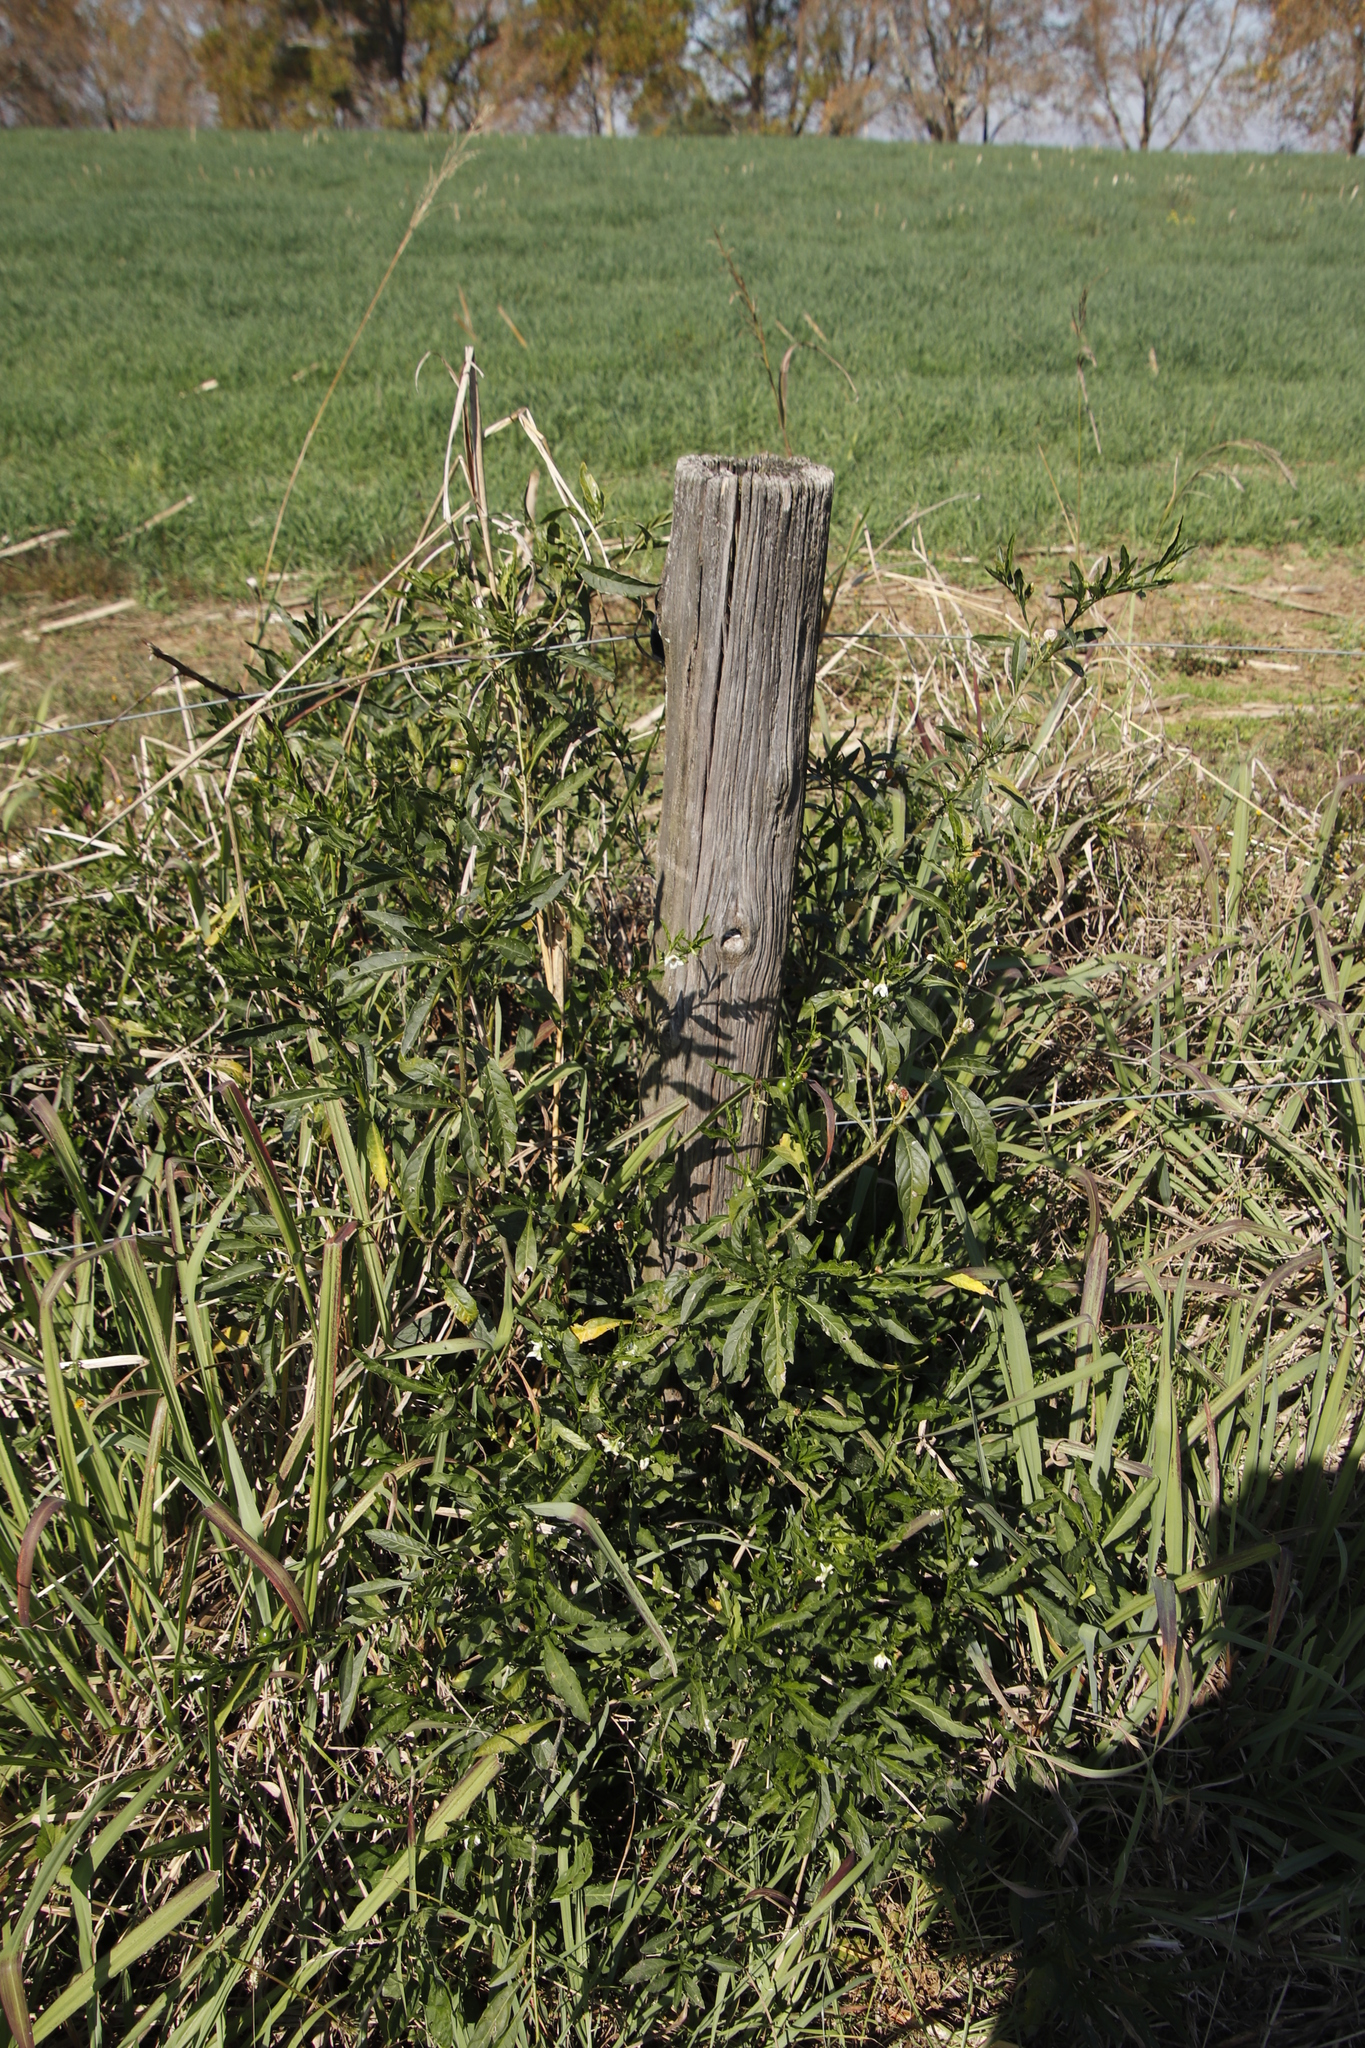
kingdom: Plantae
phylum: Tracheophyta
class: Magnoliopsida
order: Solanales
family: Solanaceae
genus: Solanum
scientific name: Solanum pseudocapsicum
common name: Jerusalem cherry
